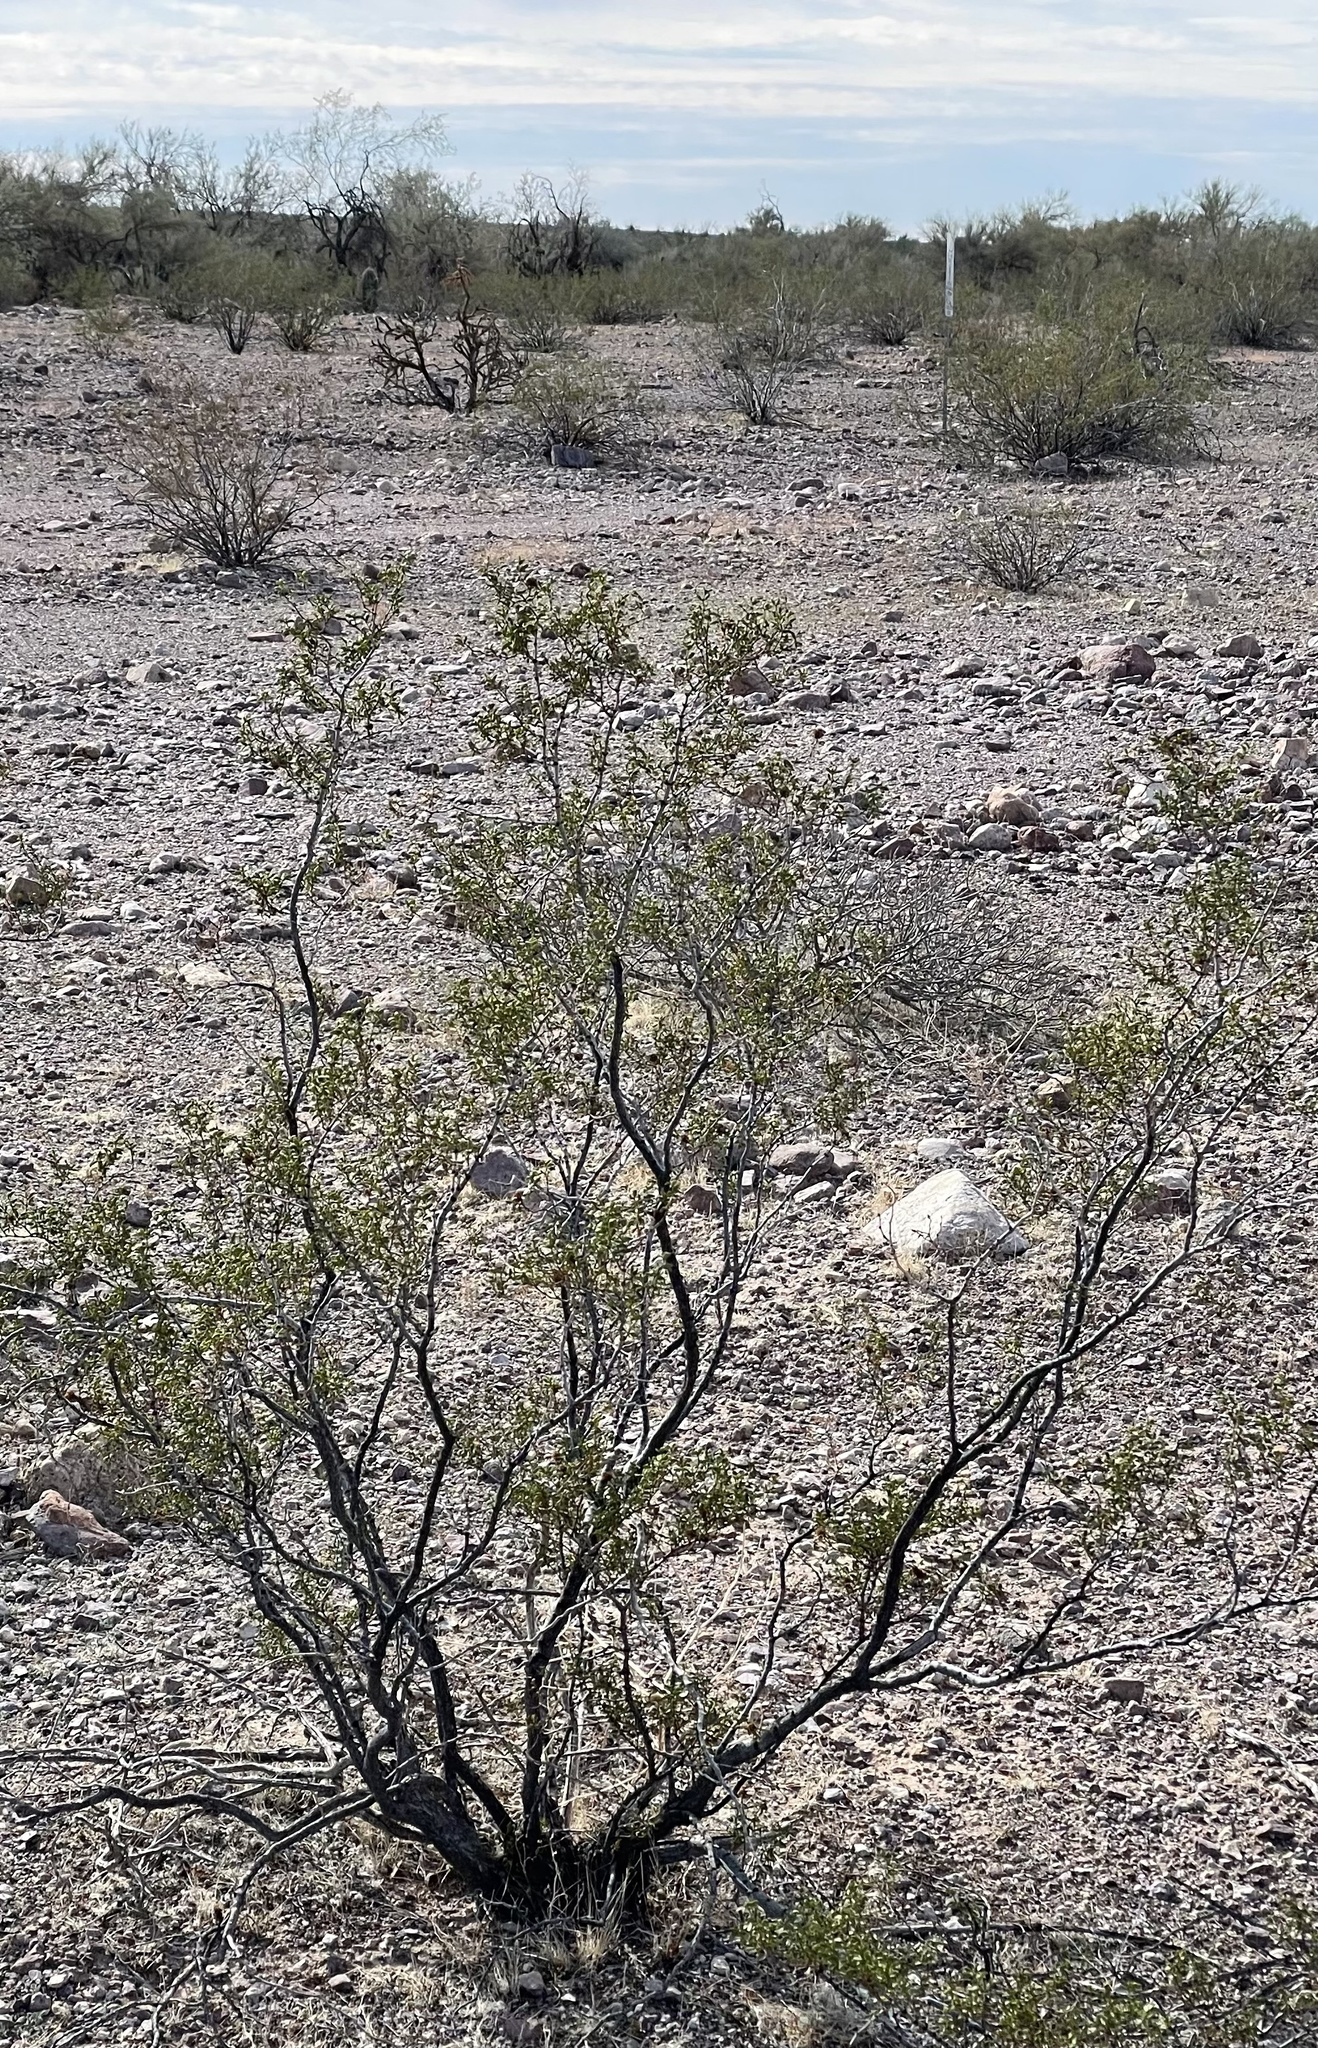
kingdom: Animalia
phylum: Arthropoda
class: Insecta
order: Diptera
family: Cecidomyiidae
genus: Asphondylia
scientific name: Asphondylia rosetta
